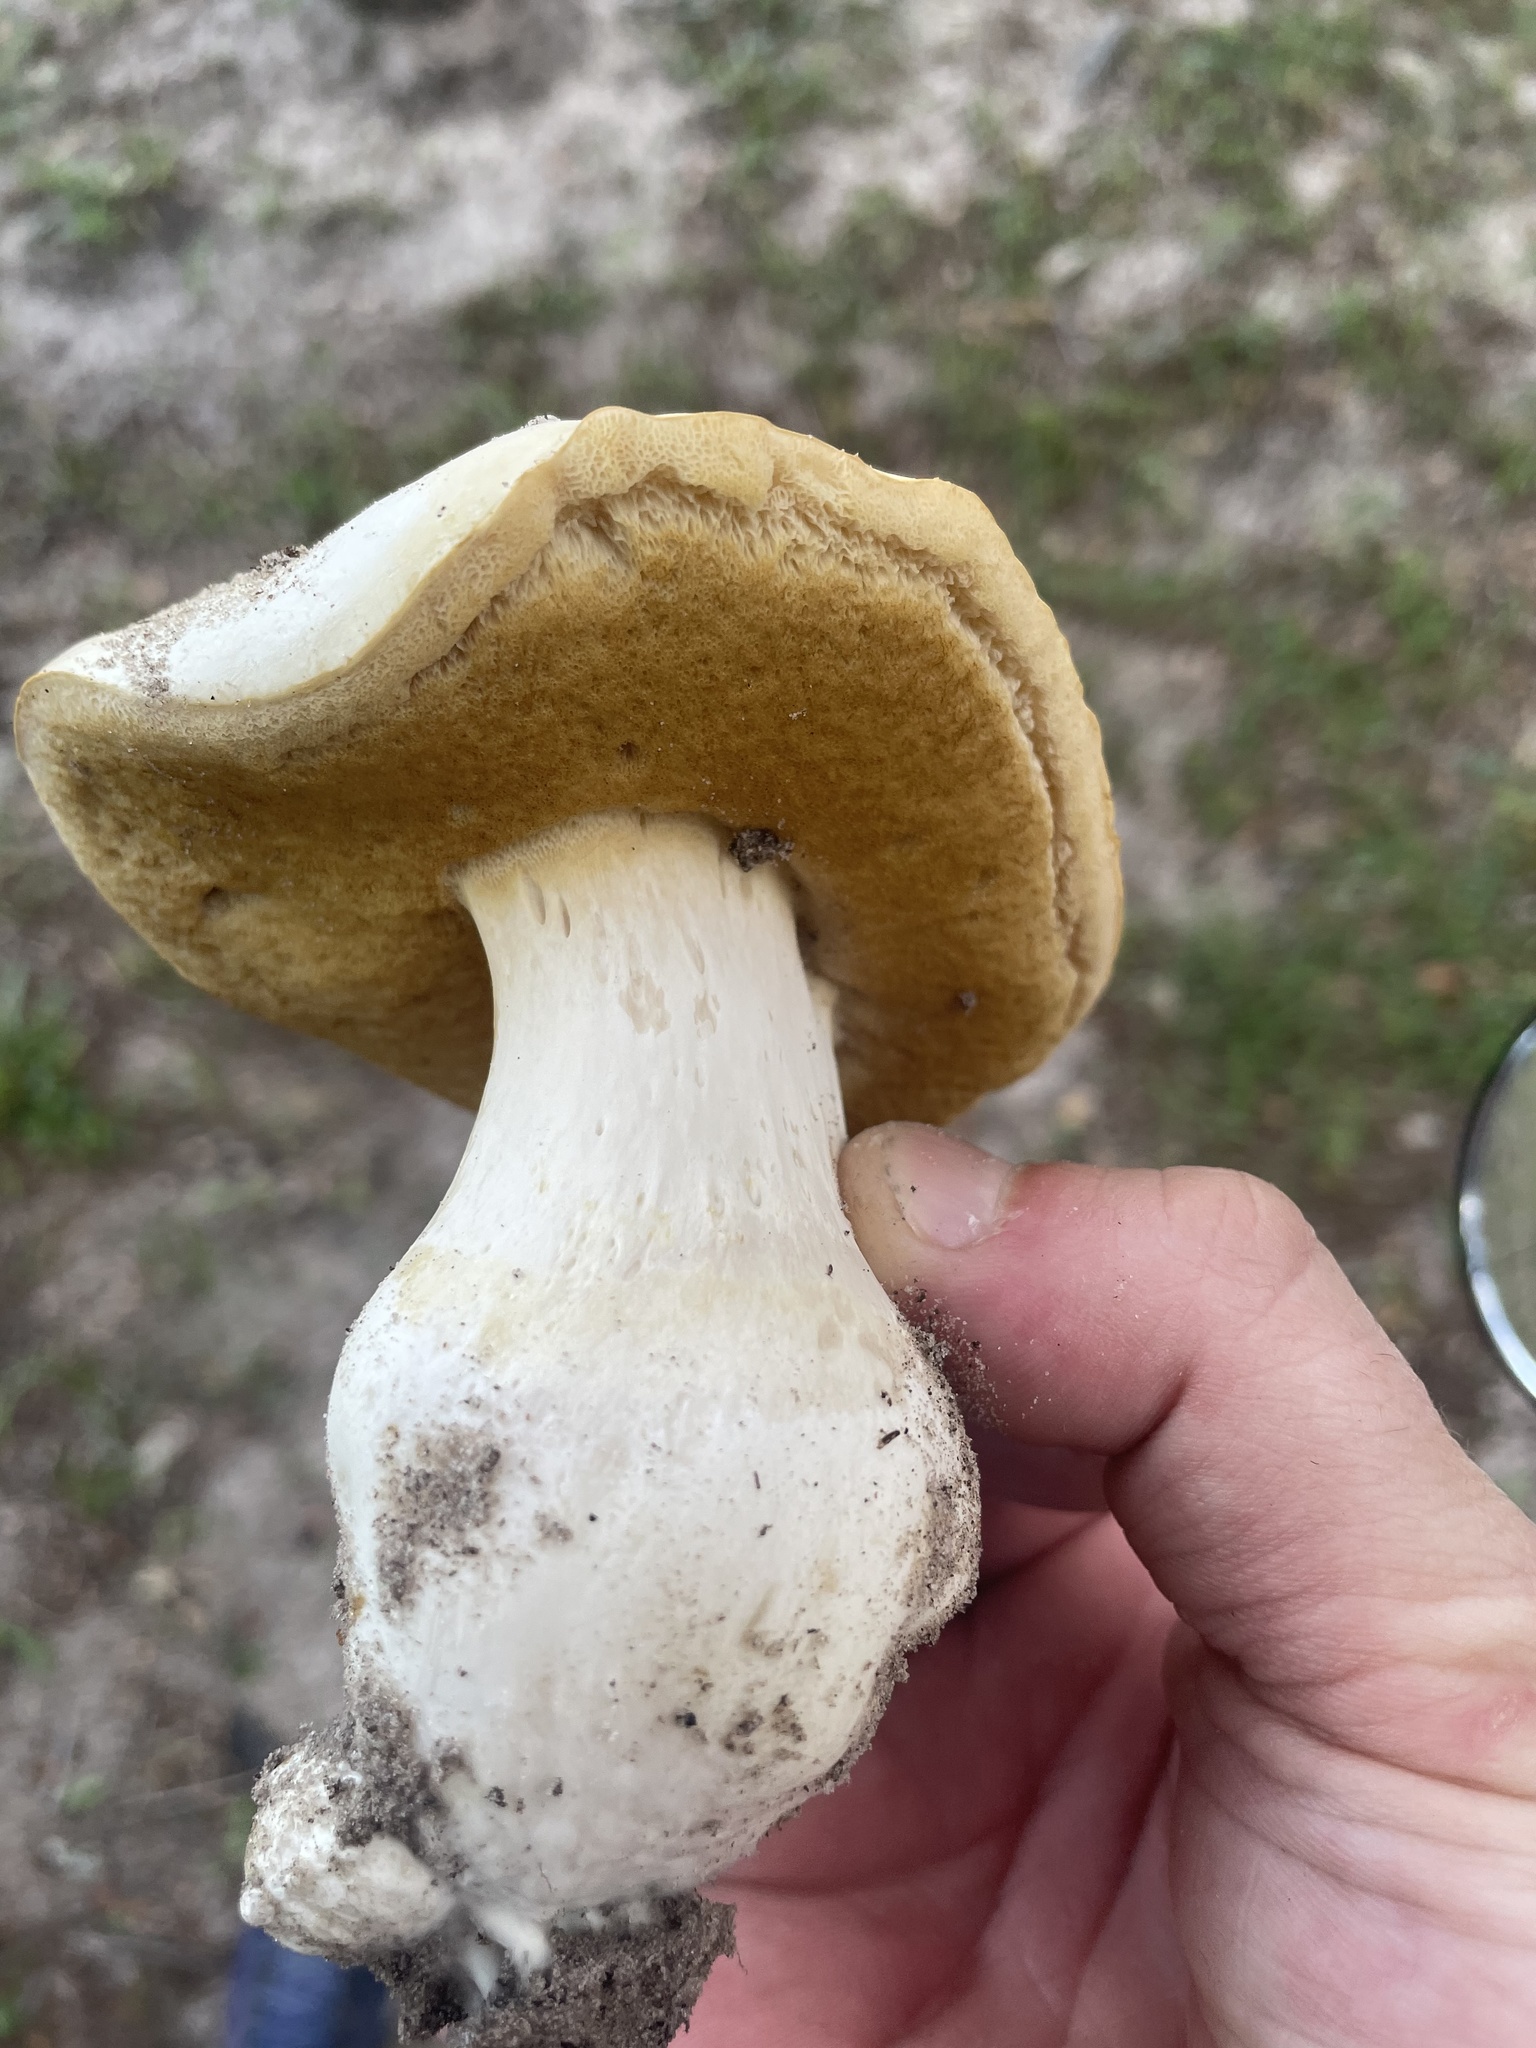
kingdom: Fungi
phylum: Basidiomycota
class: Agaricomycetes
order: Boletales
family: Boletaceae
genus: Xanthoconium
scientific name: Xanthoconium stramineum
